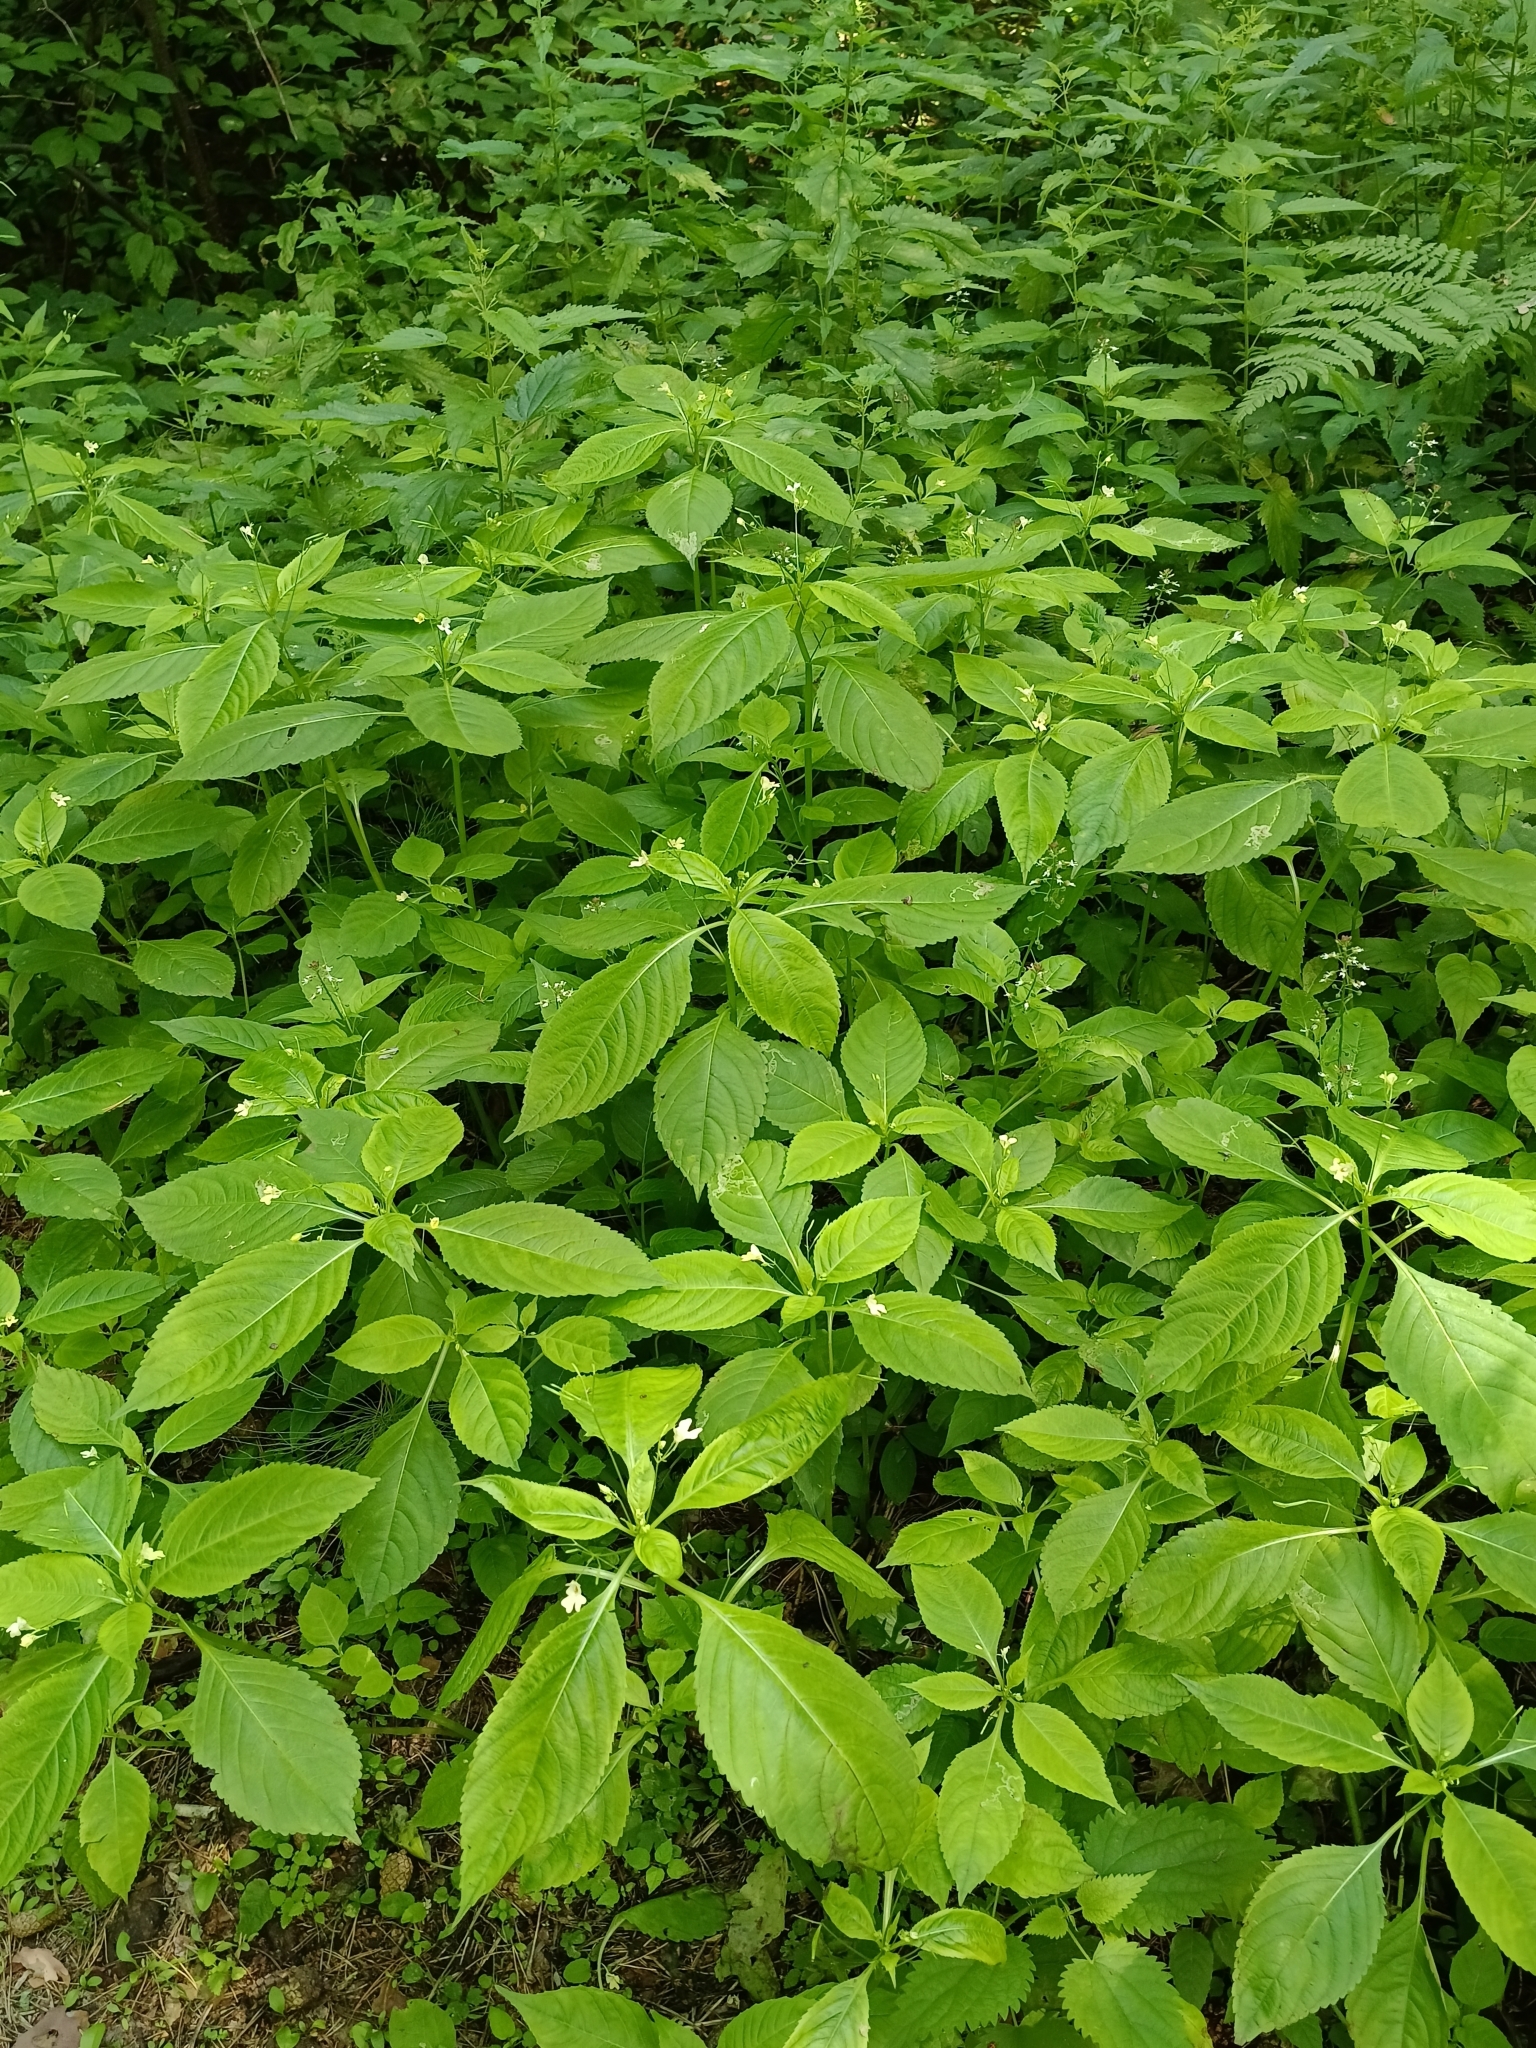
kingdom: Plantae
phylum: Tracheophyta
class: Magnoliopsida
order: Ericales
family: Balsaminaceae
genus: Impatiens
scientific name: Impatiens parviflora
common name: Small balsam
